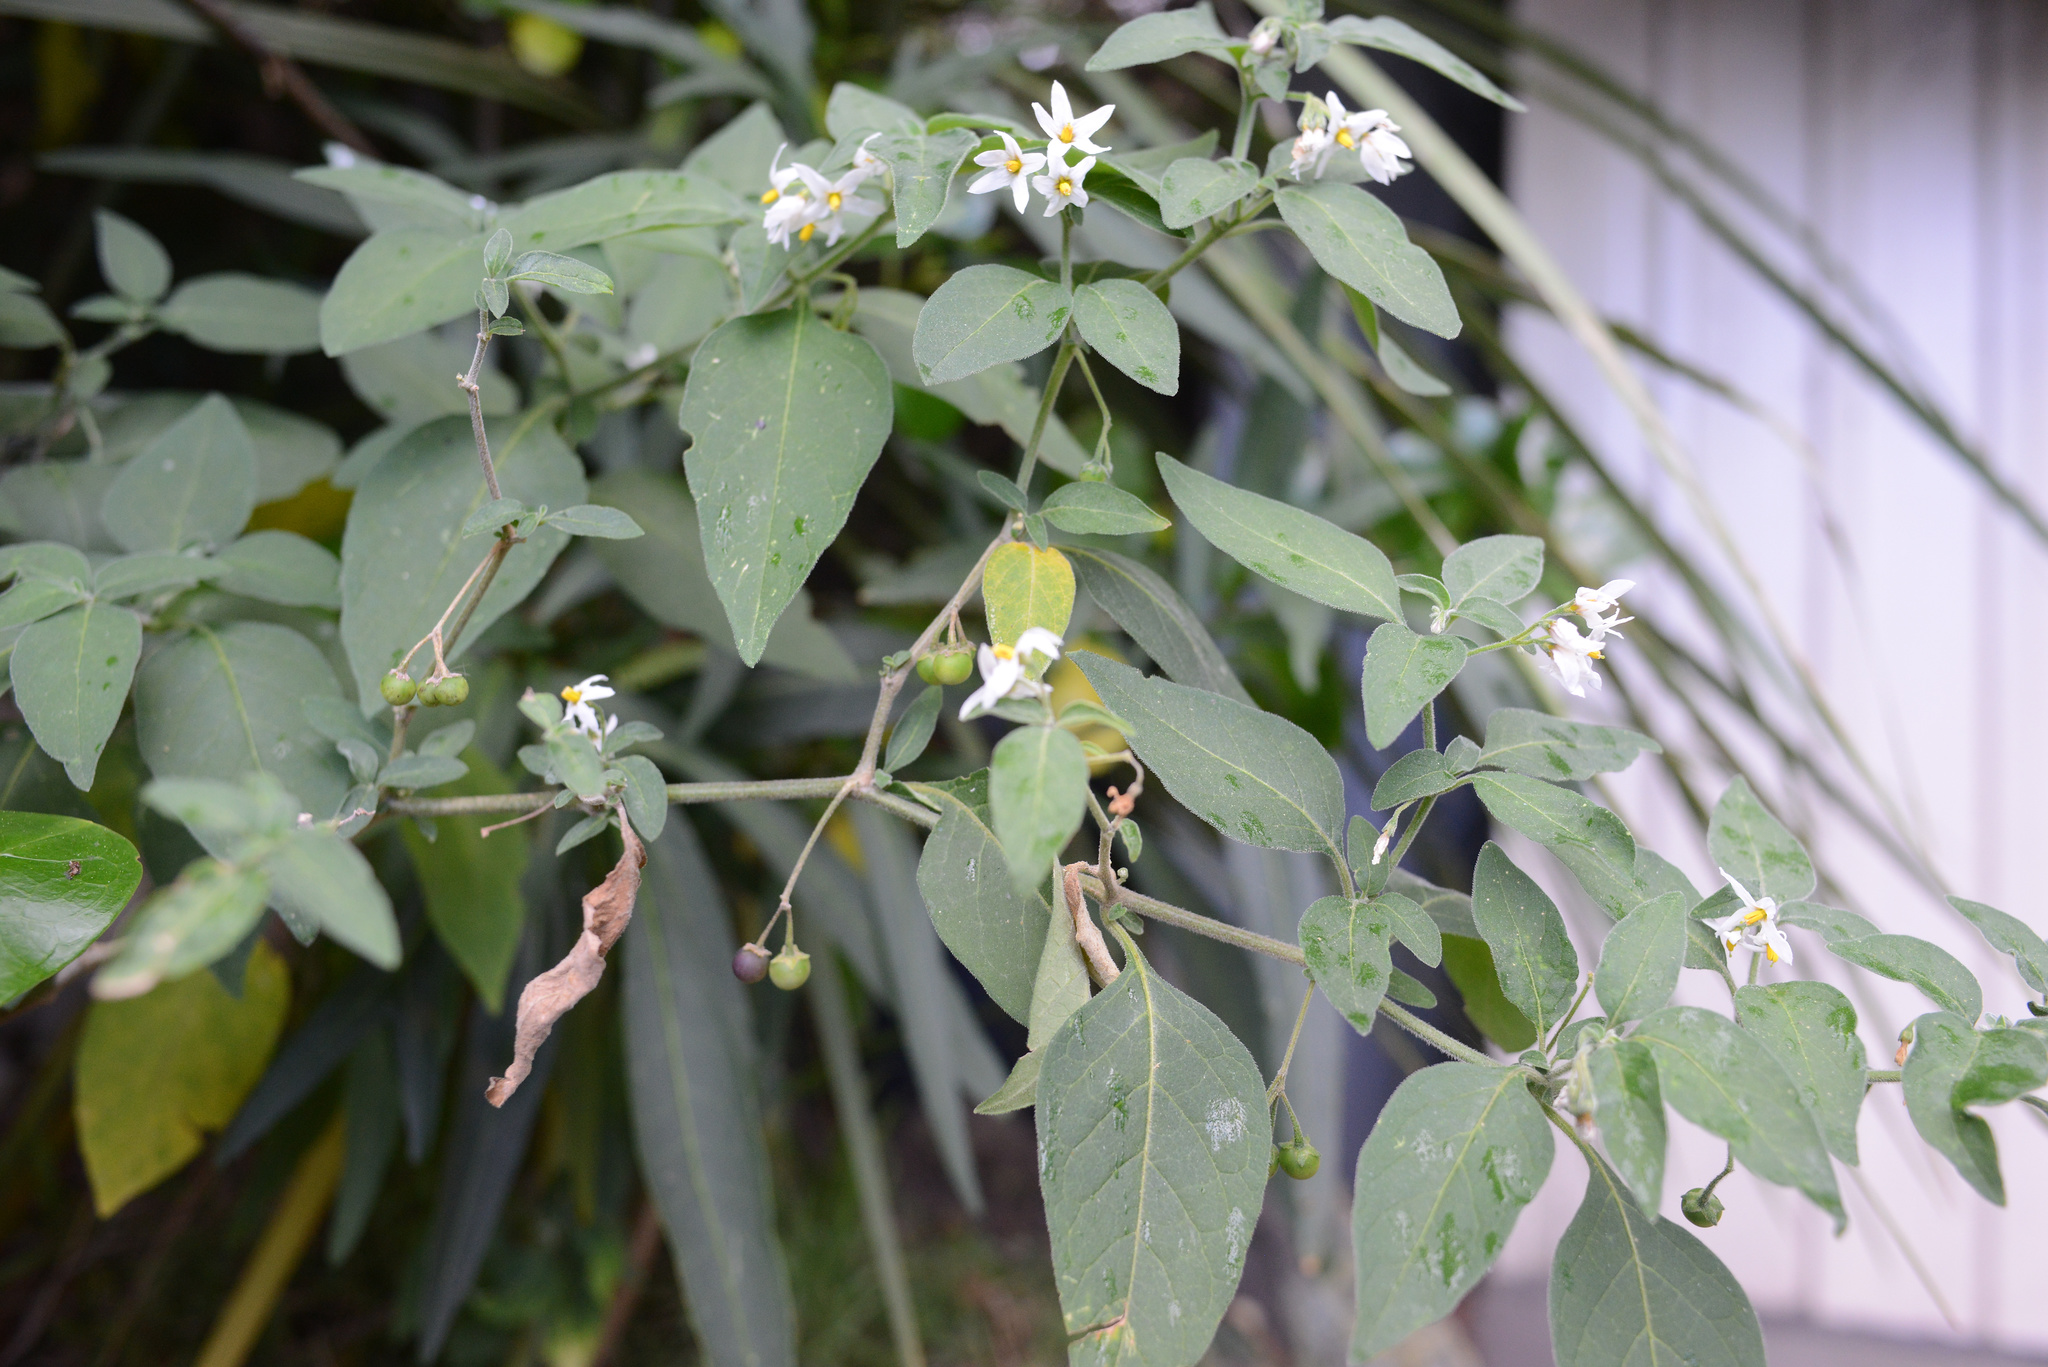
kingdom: Plantae
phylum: Tracheophyta
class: Magnoliopsida
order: Solanales
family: Solanaceae
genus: Solanum
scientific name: Solanum chenopodioides
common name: Tall nightshade
